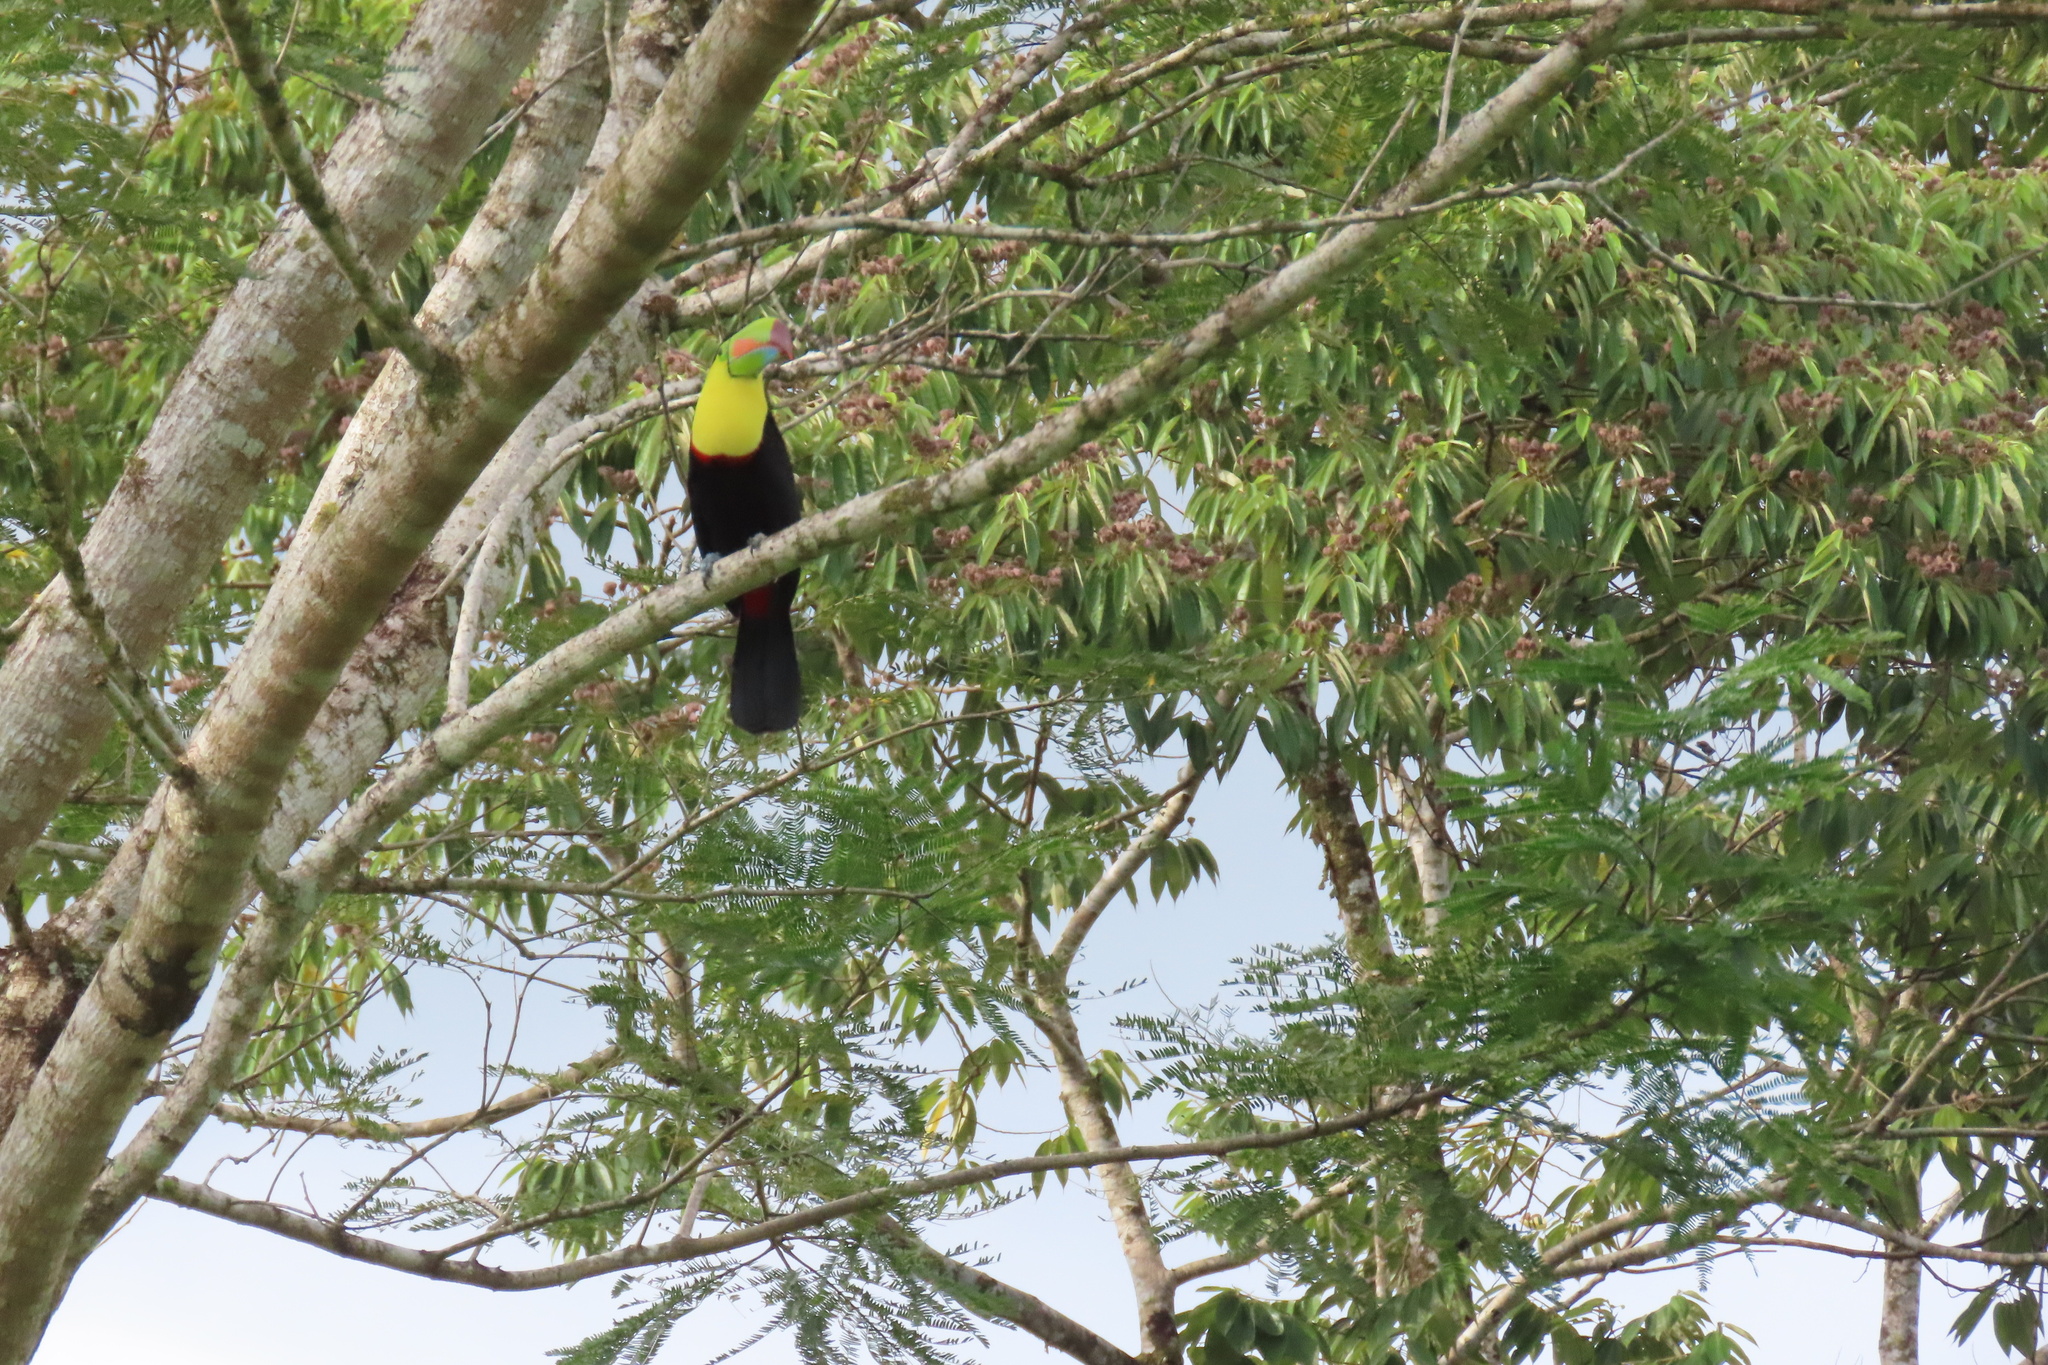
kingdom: Animalia
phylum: Chordata
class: Aves
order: Piciformes
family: Ramphastidae
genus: Ramphastos
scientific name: Ramphastos sulfuratus
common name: Keel-billed toucan
